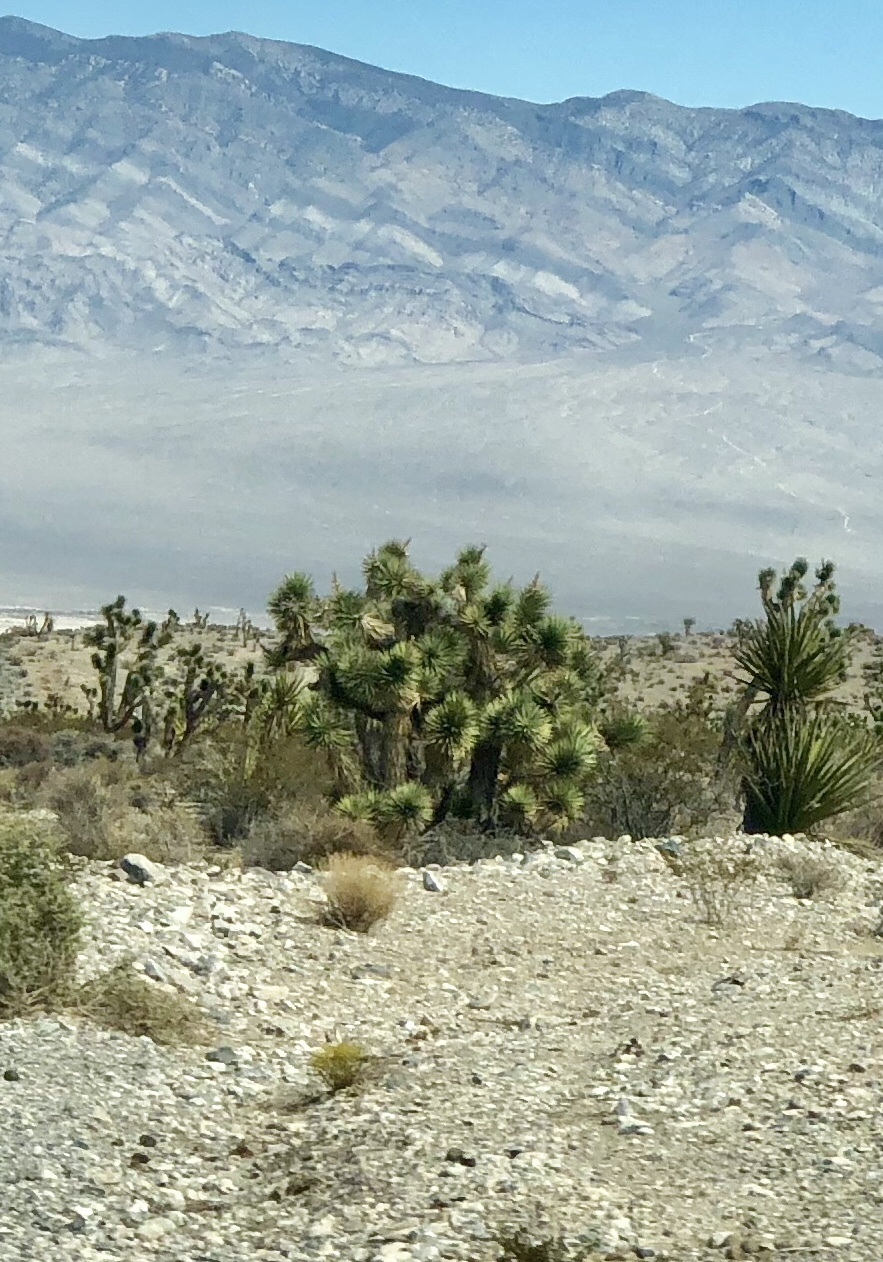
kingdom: Plantae
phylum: Tracheophyta
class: Liliopsida
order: Asparagales
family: Asparagaceae
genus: Yucca
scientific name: Yucca brevifolia
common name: Joshua tree
